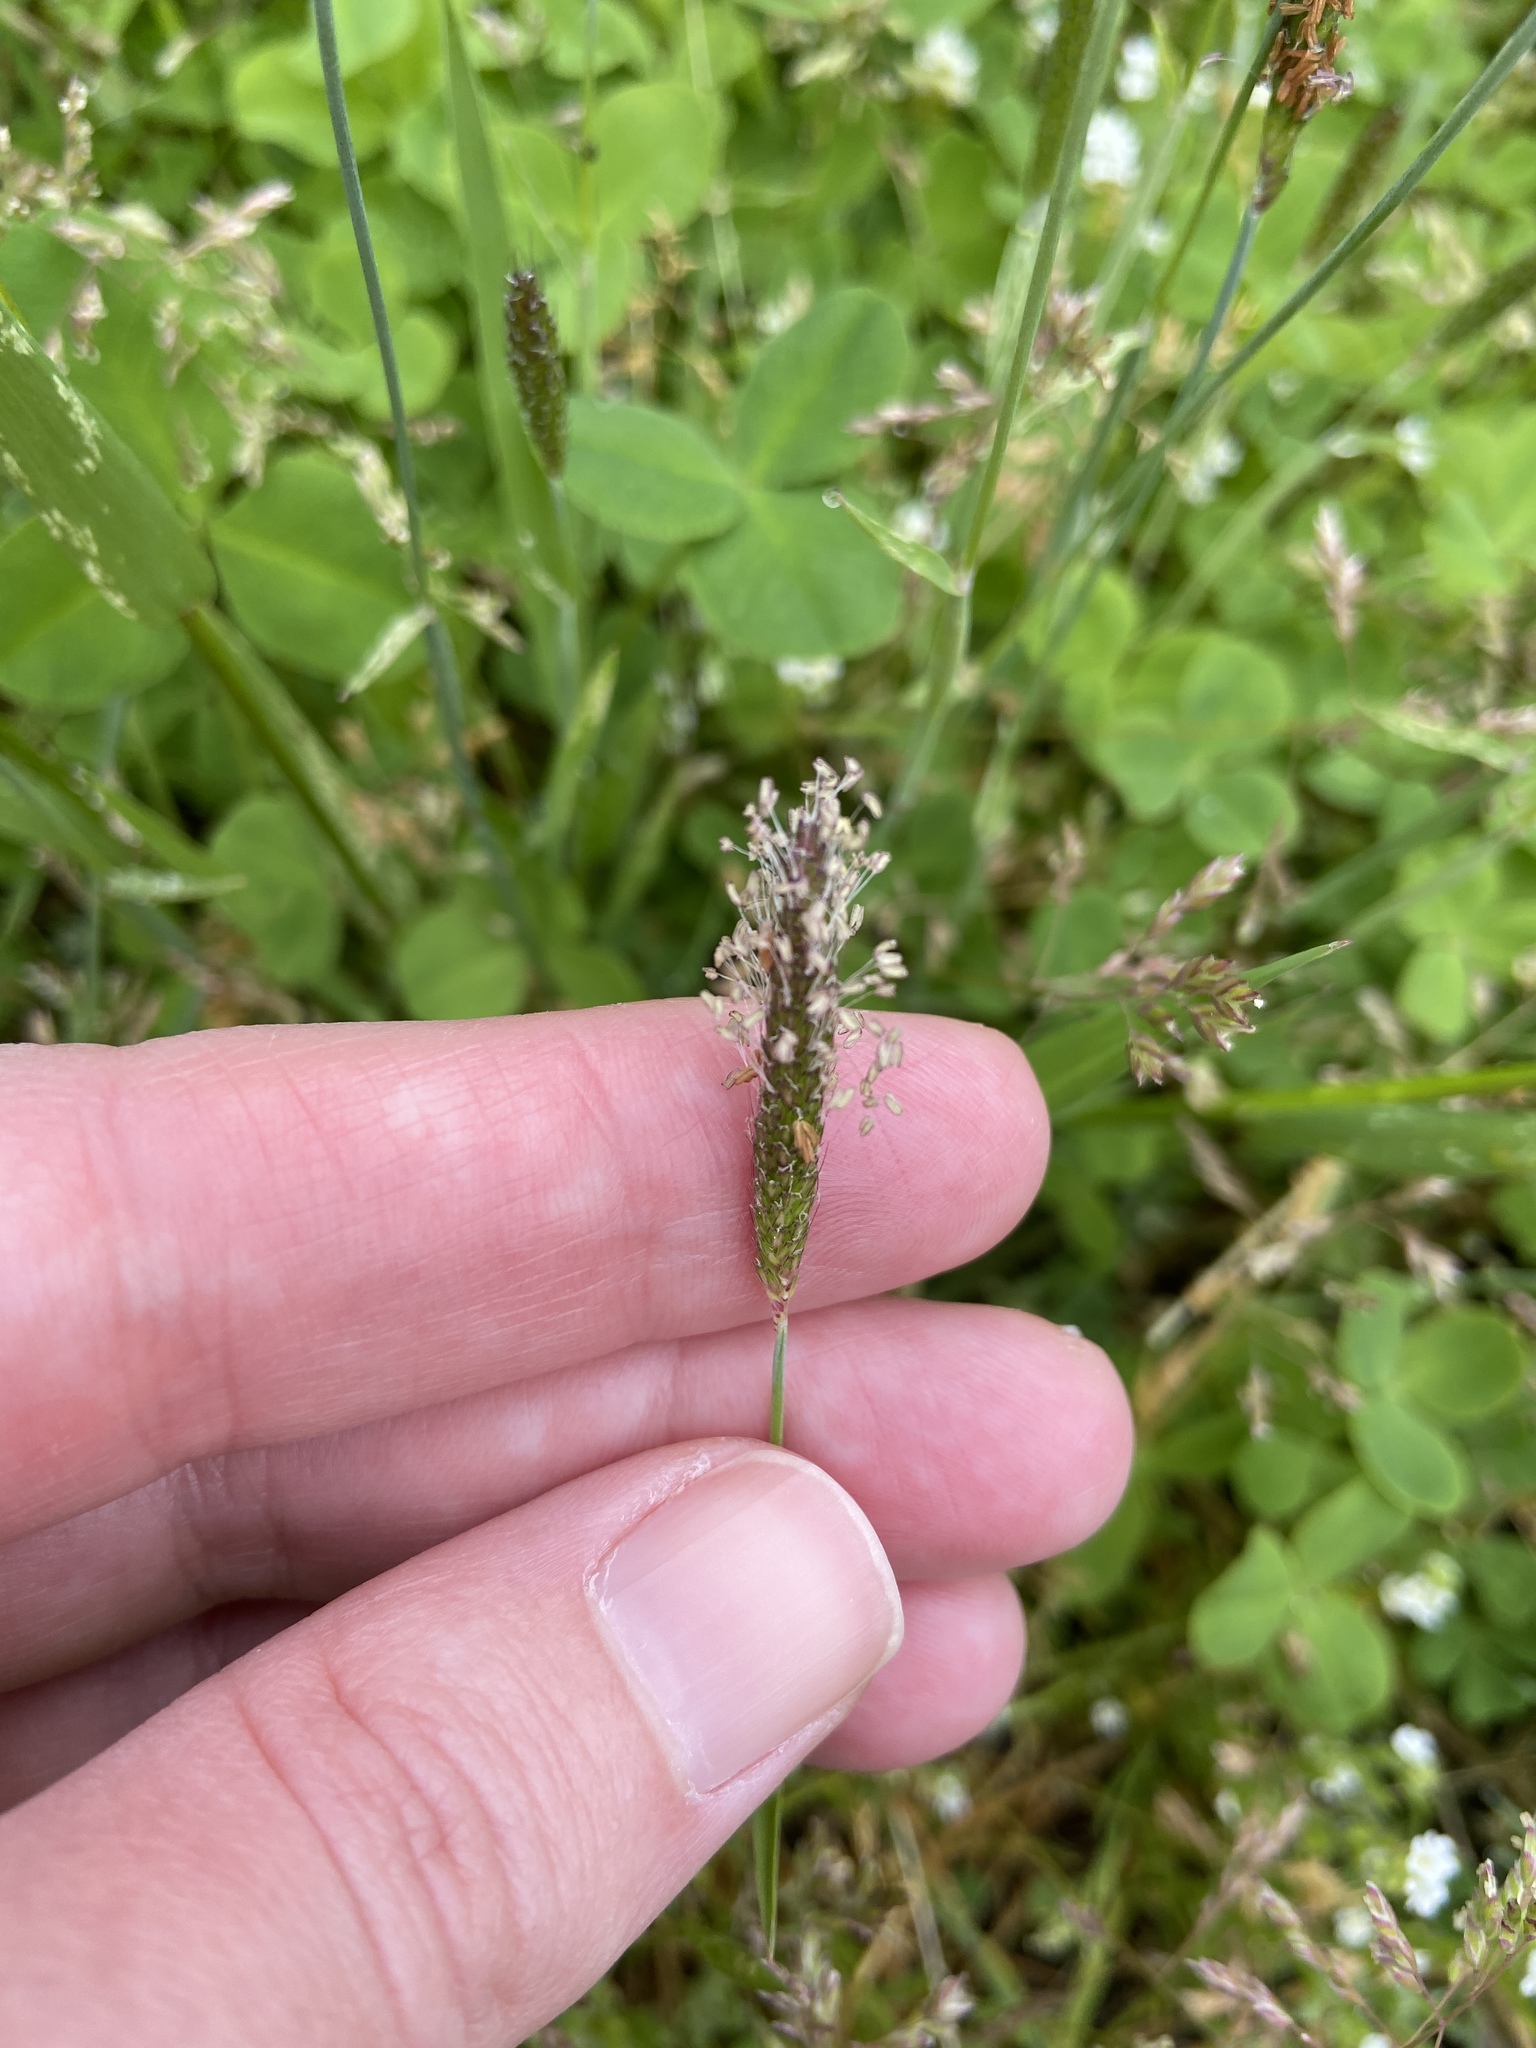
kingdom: Plantae
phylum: Tracheophyta
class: Liliopsida
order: Poales
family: Poaceae
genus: Alopecurus
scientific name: Alopecurus geniculatus
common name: Water foxtail
